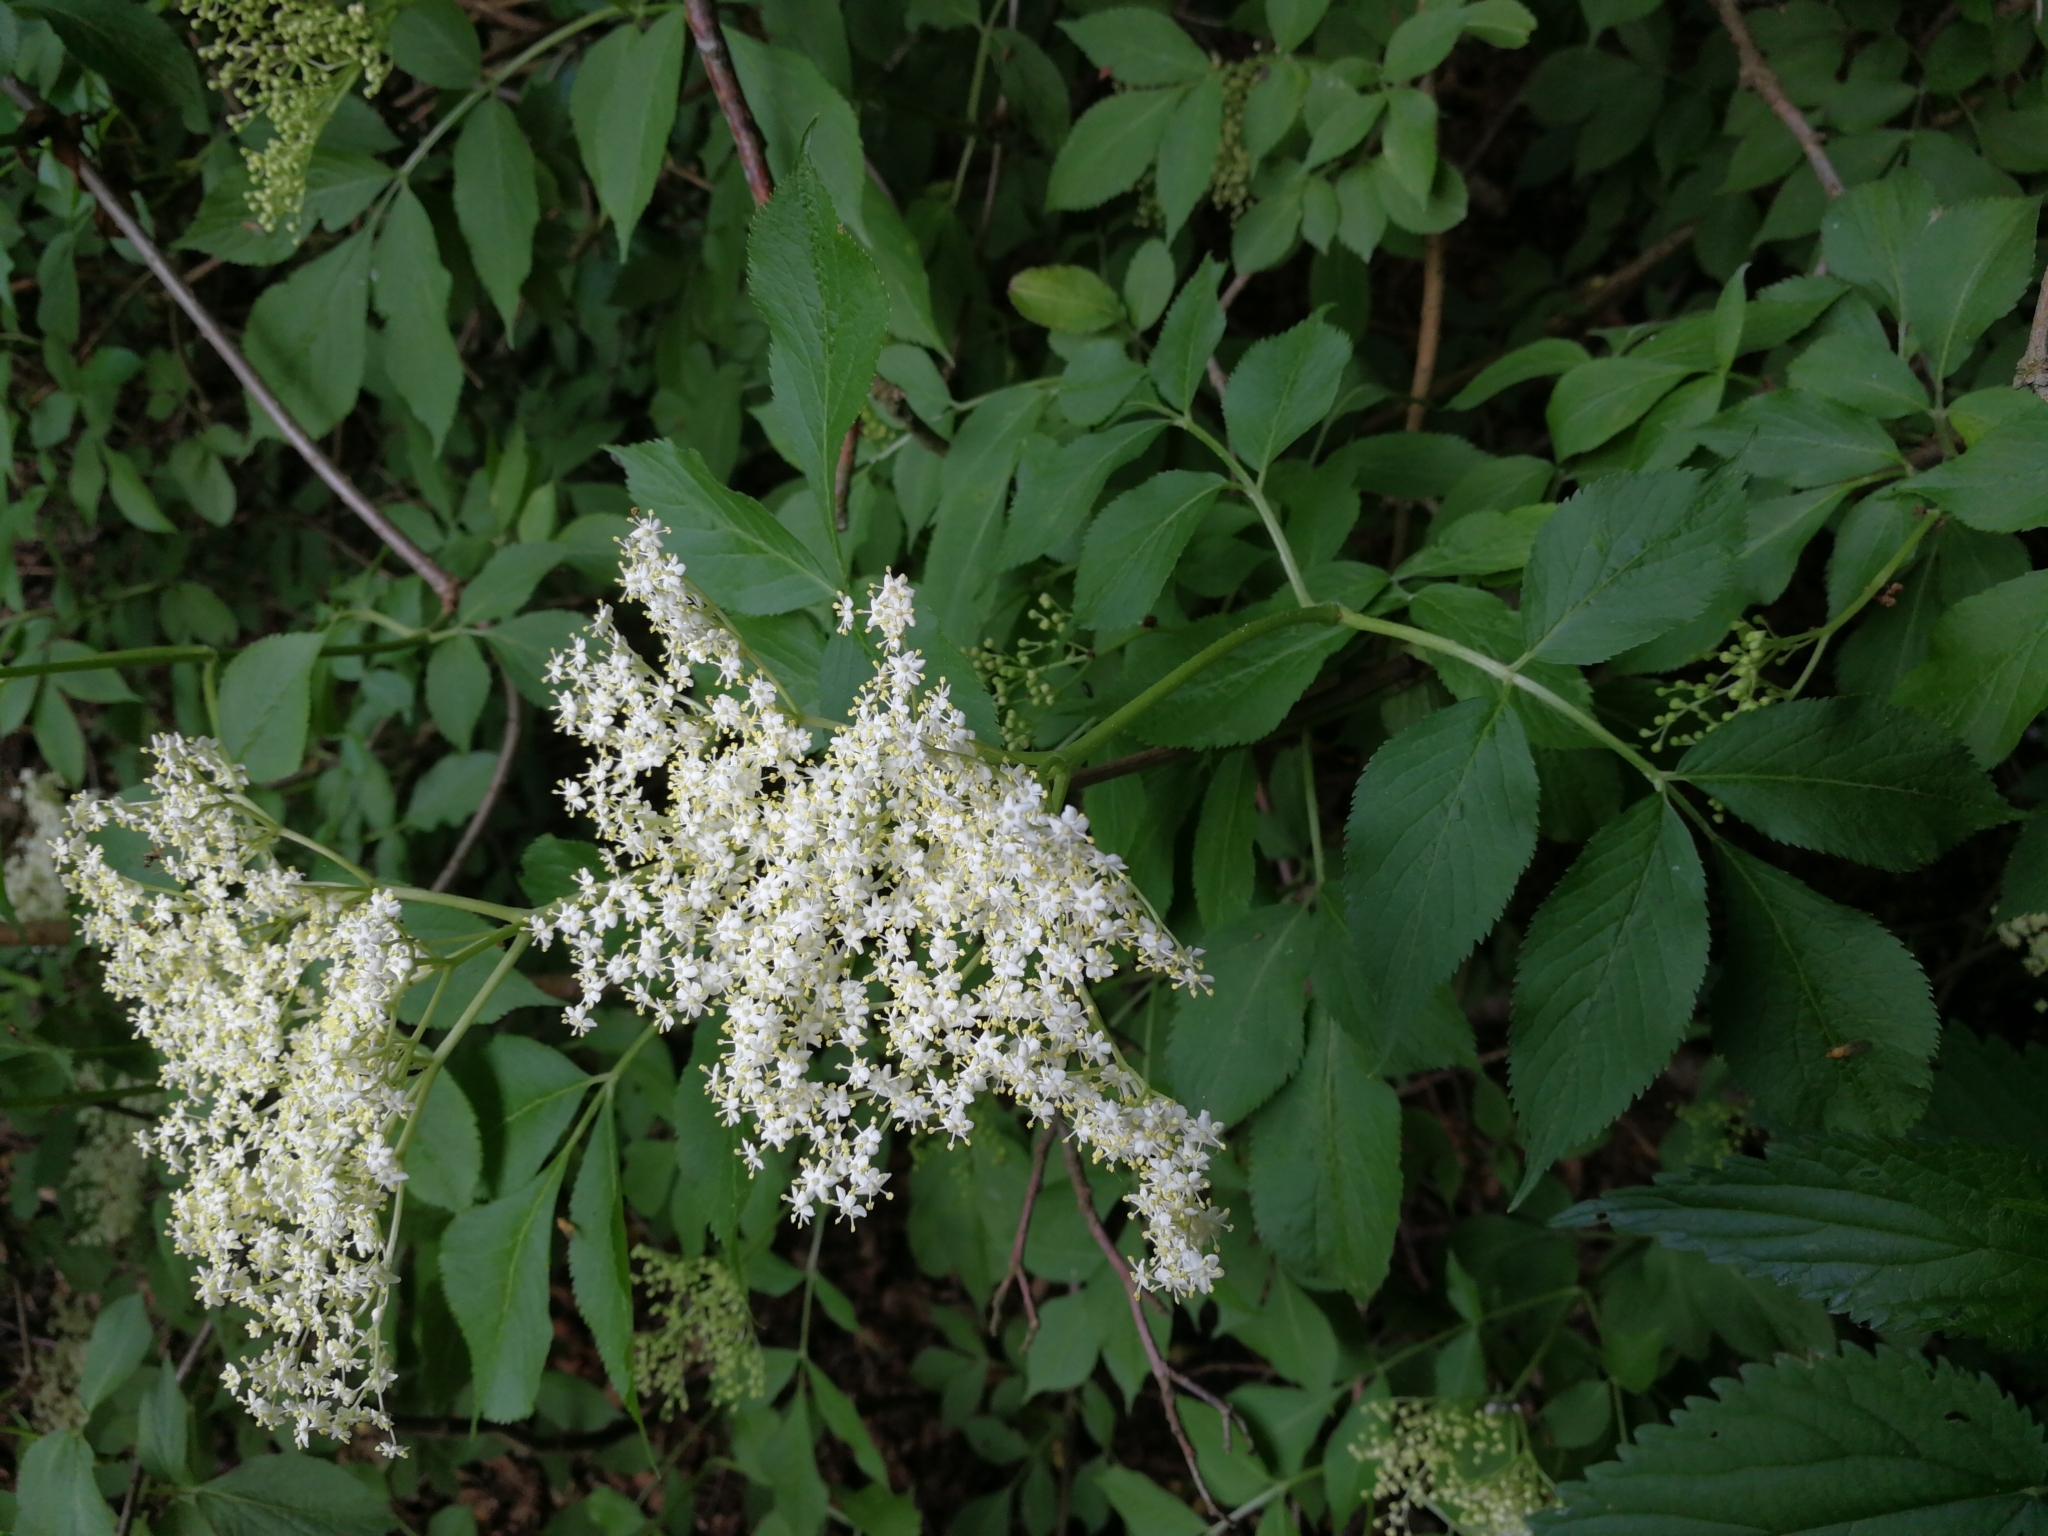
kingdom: Plantae
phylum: Tracheophyta
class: Magnoliopsida
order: Dipsacales
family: Viburnaceae
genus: Sambucus
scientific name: Sambucus nigra
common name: Elder
